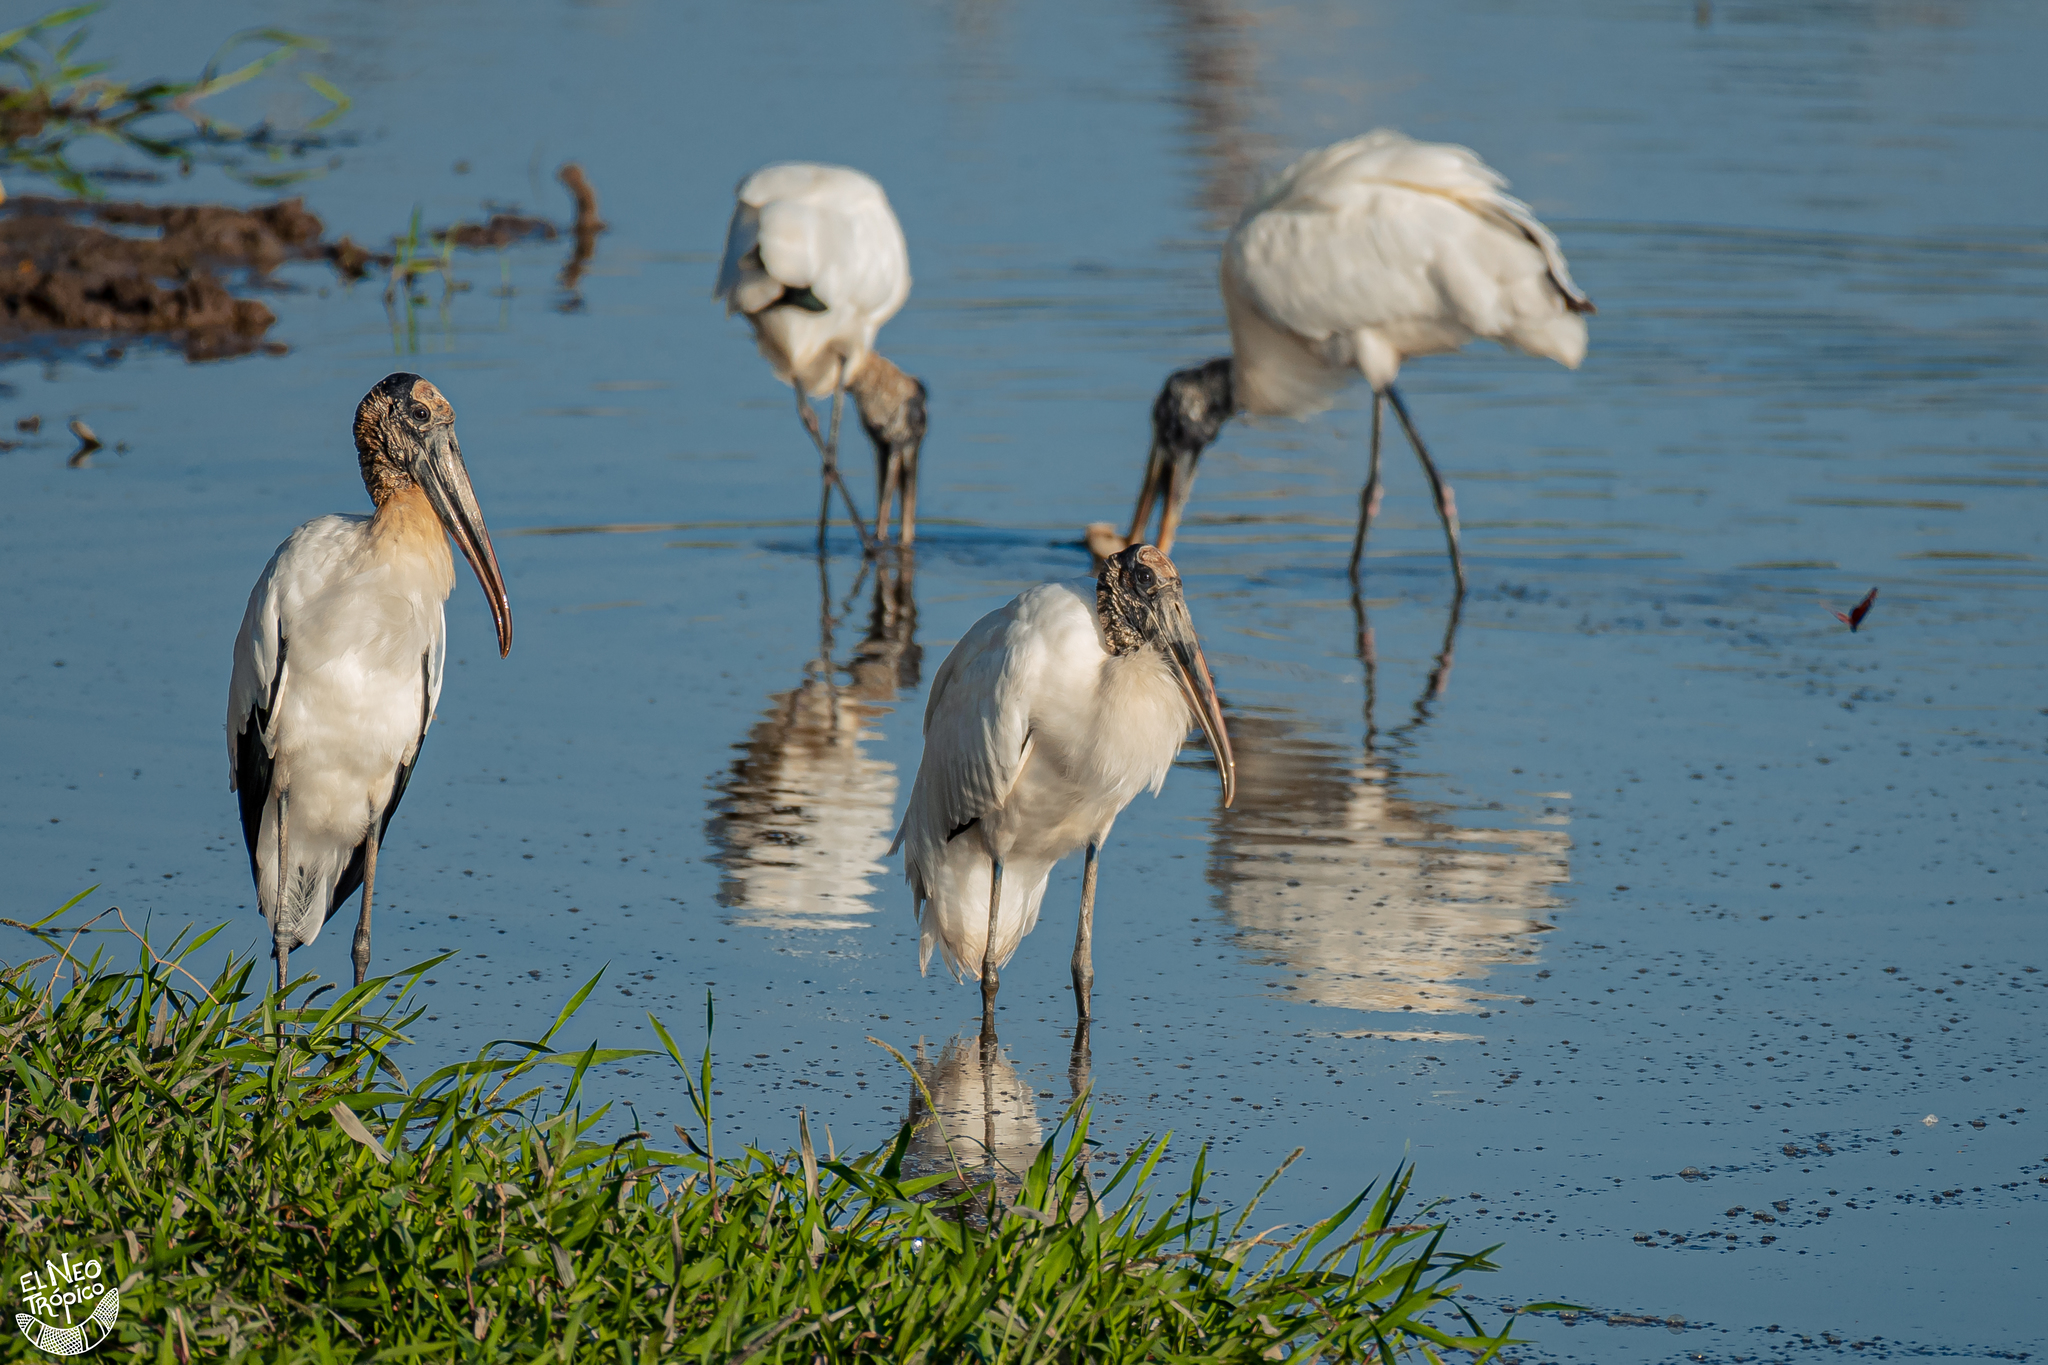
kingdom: Animalia
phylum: Chordata
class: Aves
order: Ciconiiformes
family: Ciconiidae
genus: Mycteria
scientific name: Mycteria americana
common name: Wood stork
